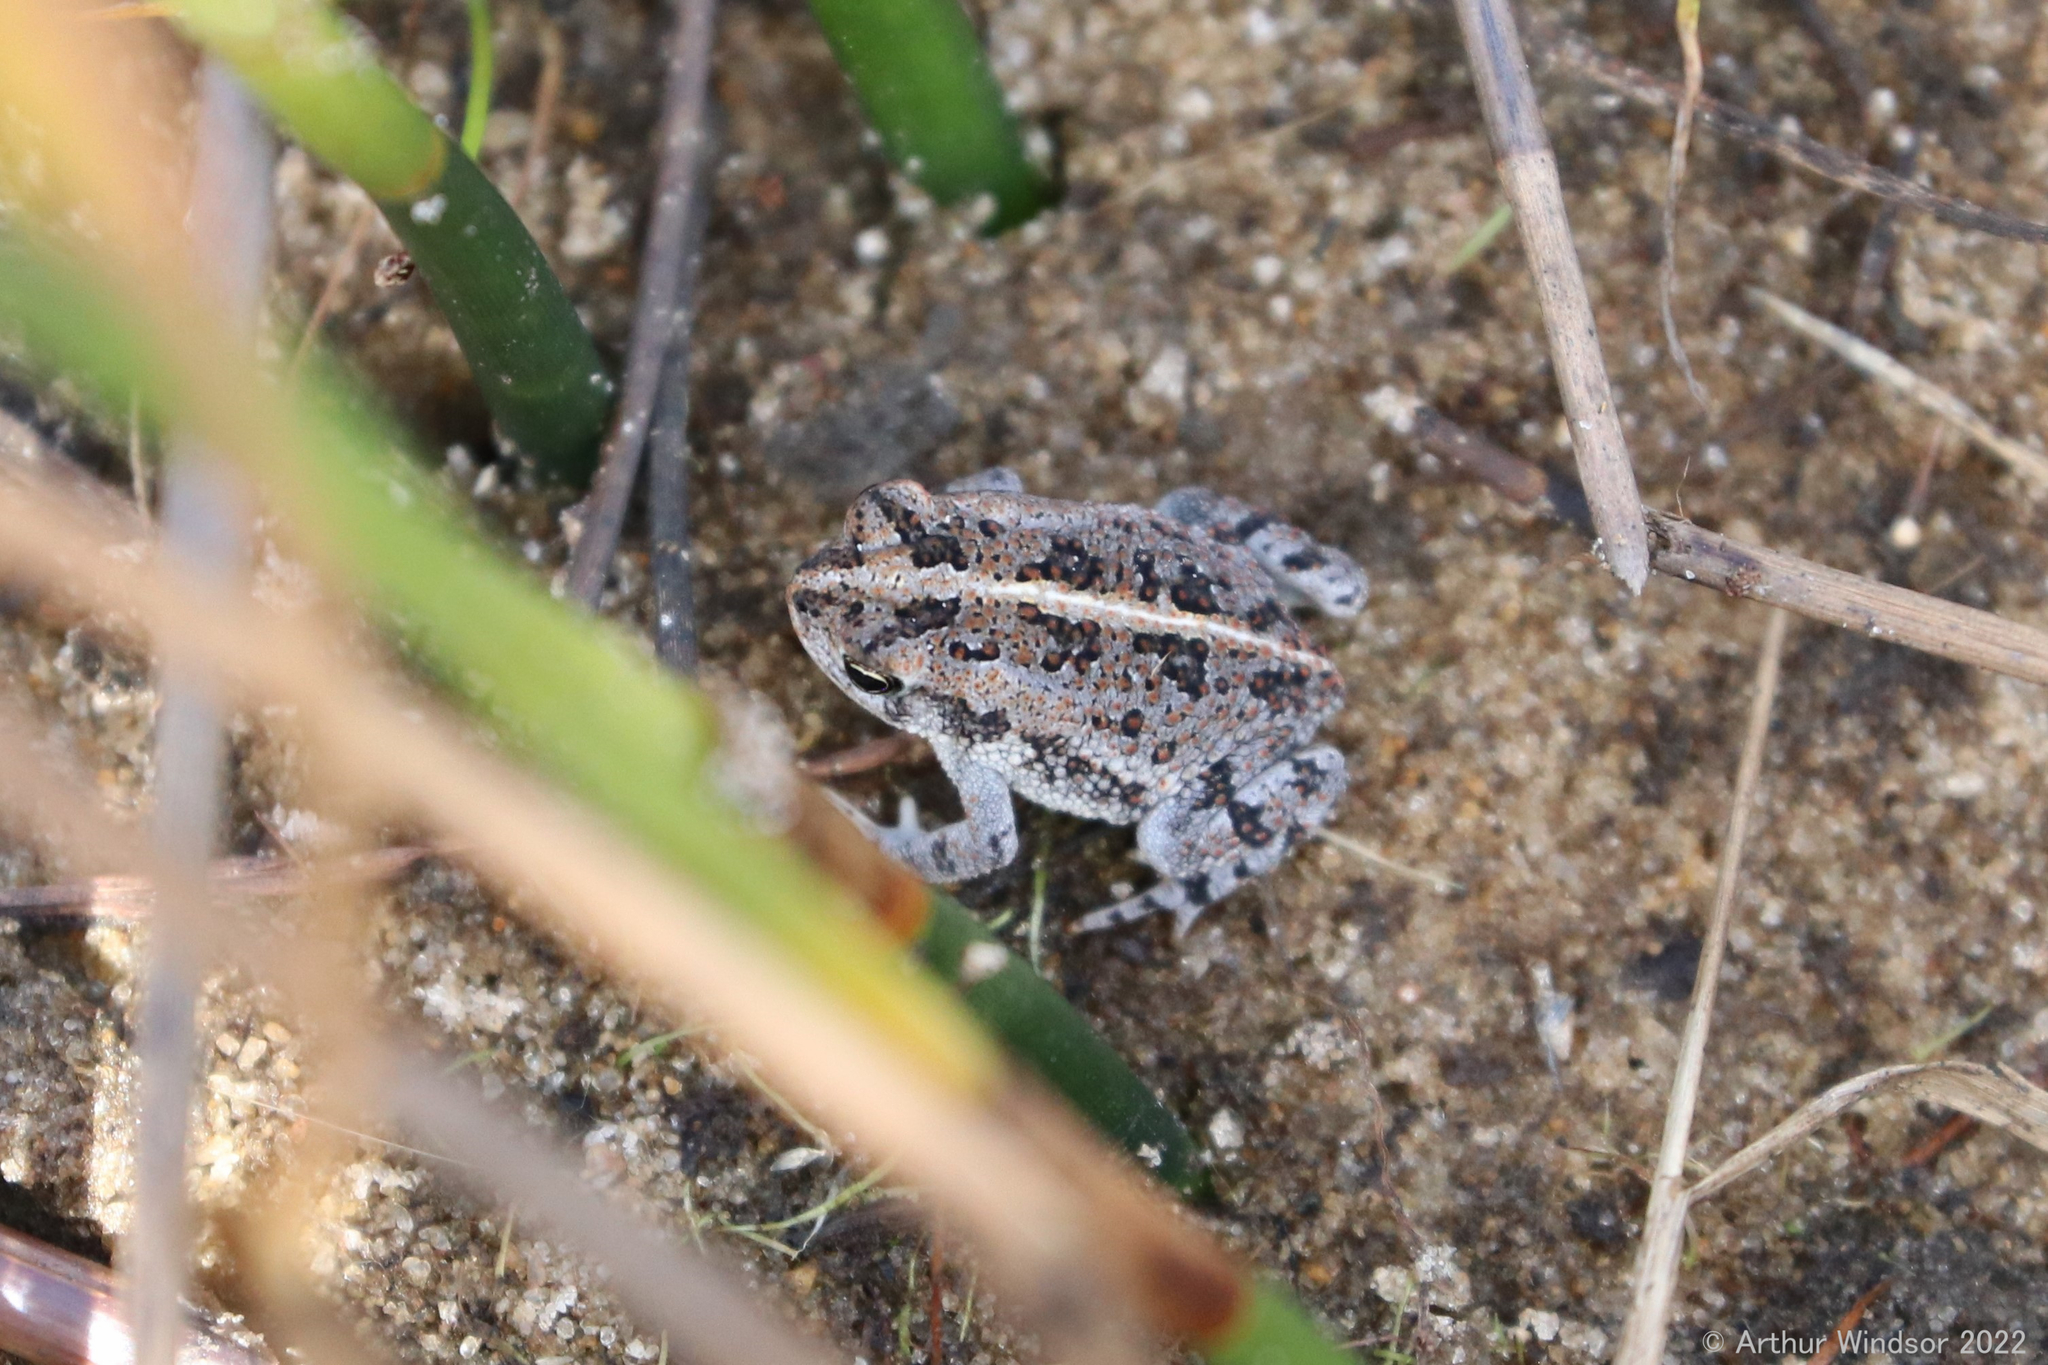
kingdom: Animalia
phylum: Chordata
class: Amphibia
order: Anura
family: Bufonidae
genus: Anaxyrus
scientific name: Anaxyrus quercicus
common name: Oak toad
